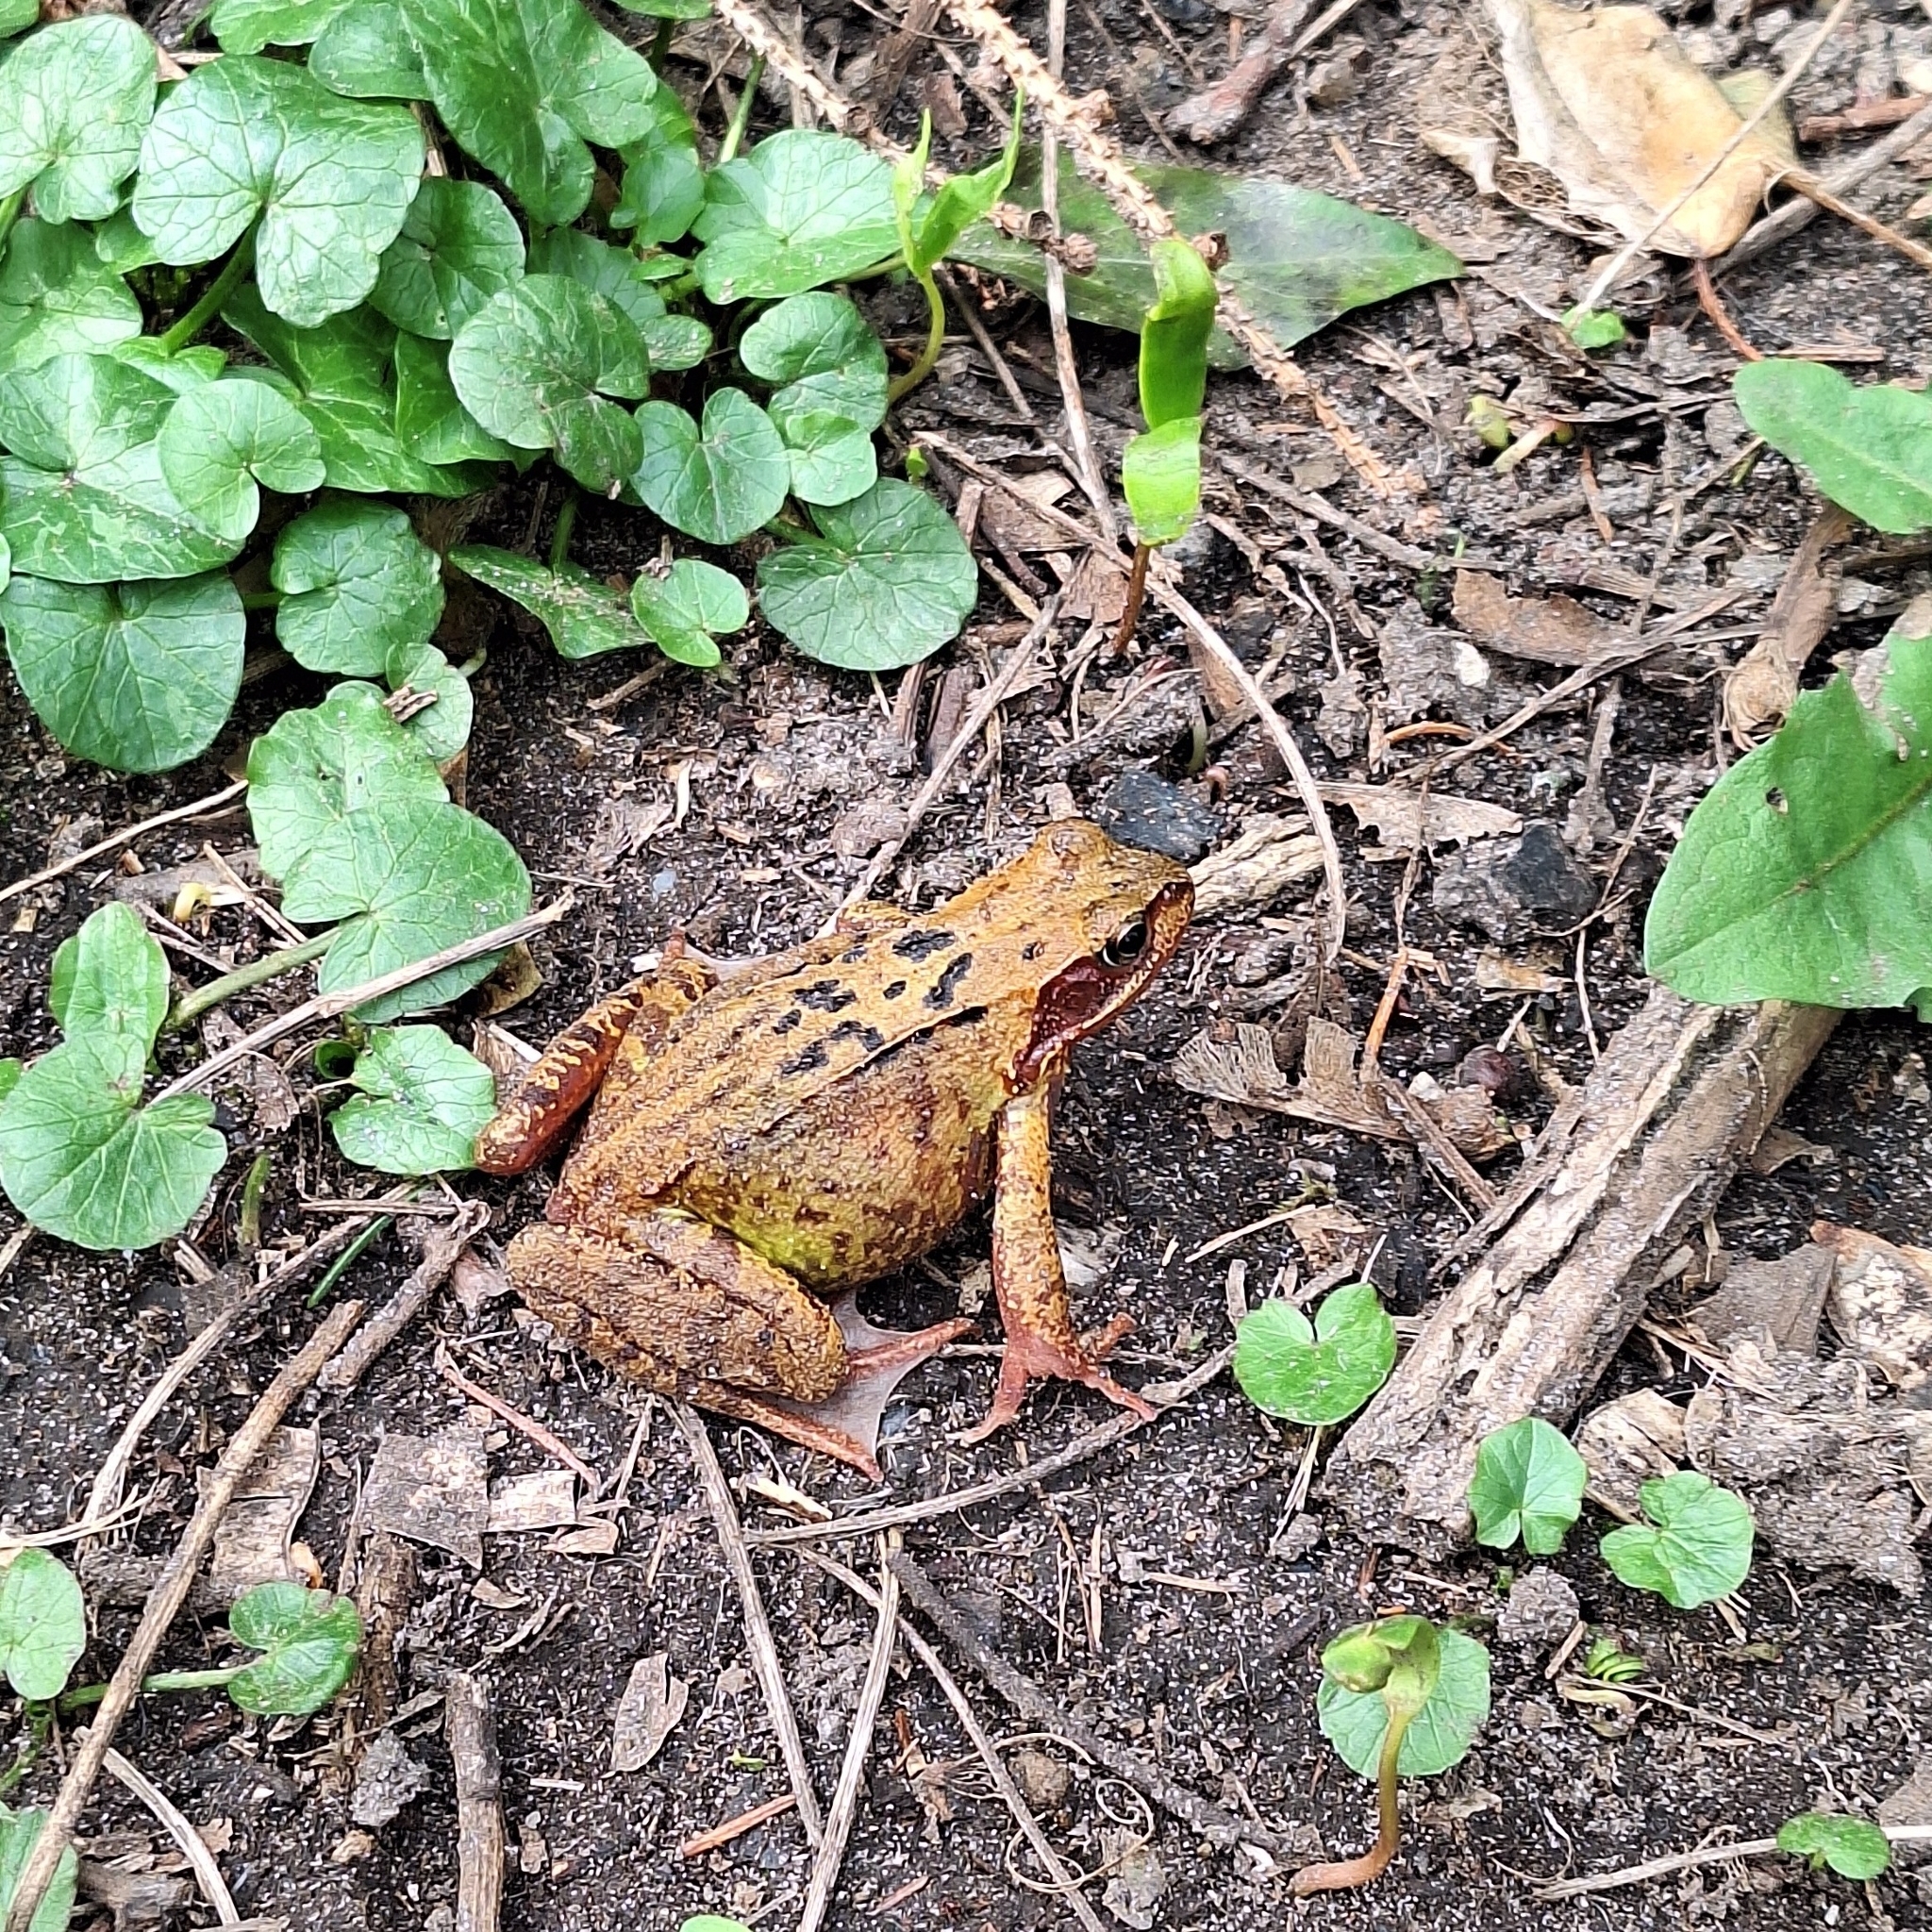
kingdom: Animalia
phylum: Chordata
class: Amphibia
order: Anura
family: Ranidae
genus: Rana
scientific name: Rana temporaria
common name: Common frog
